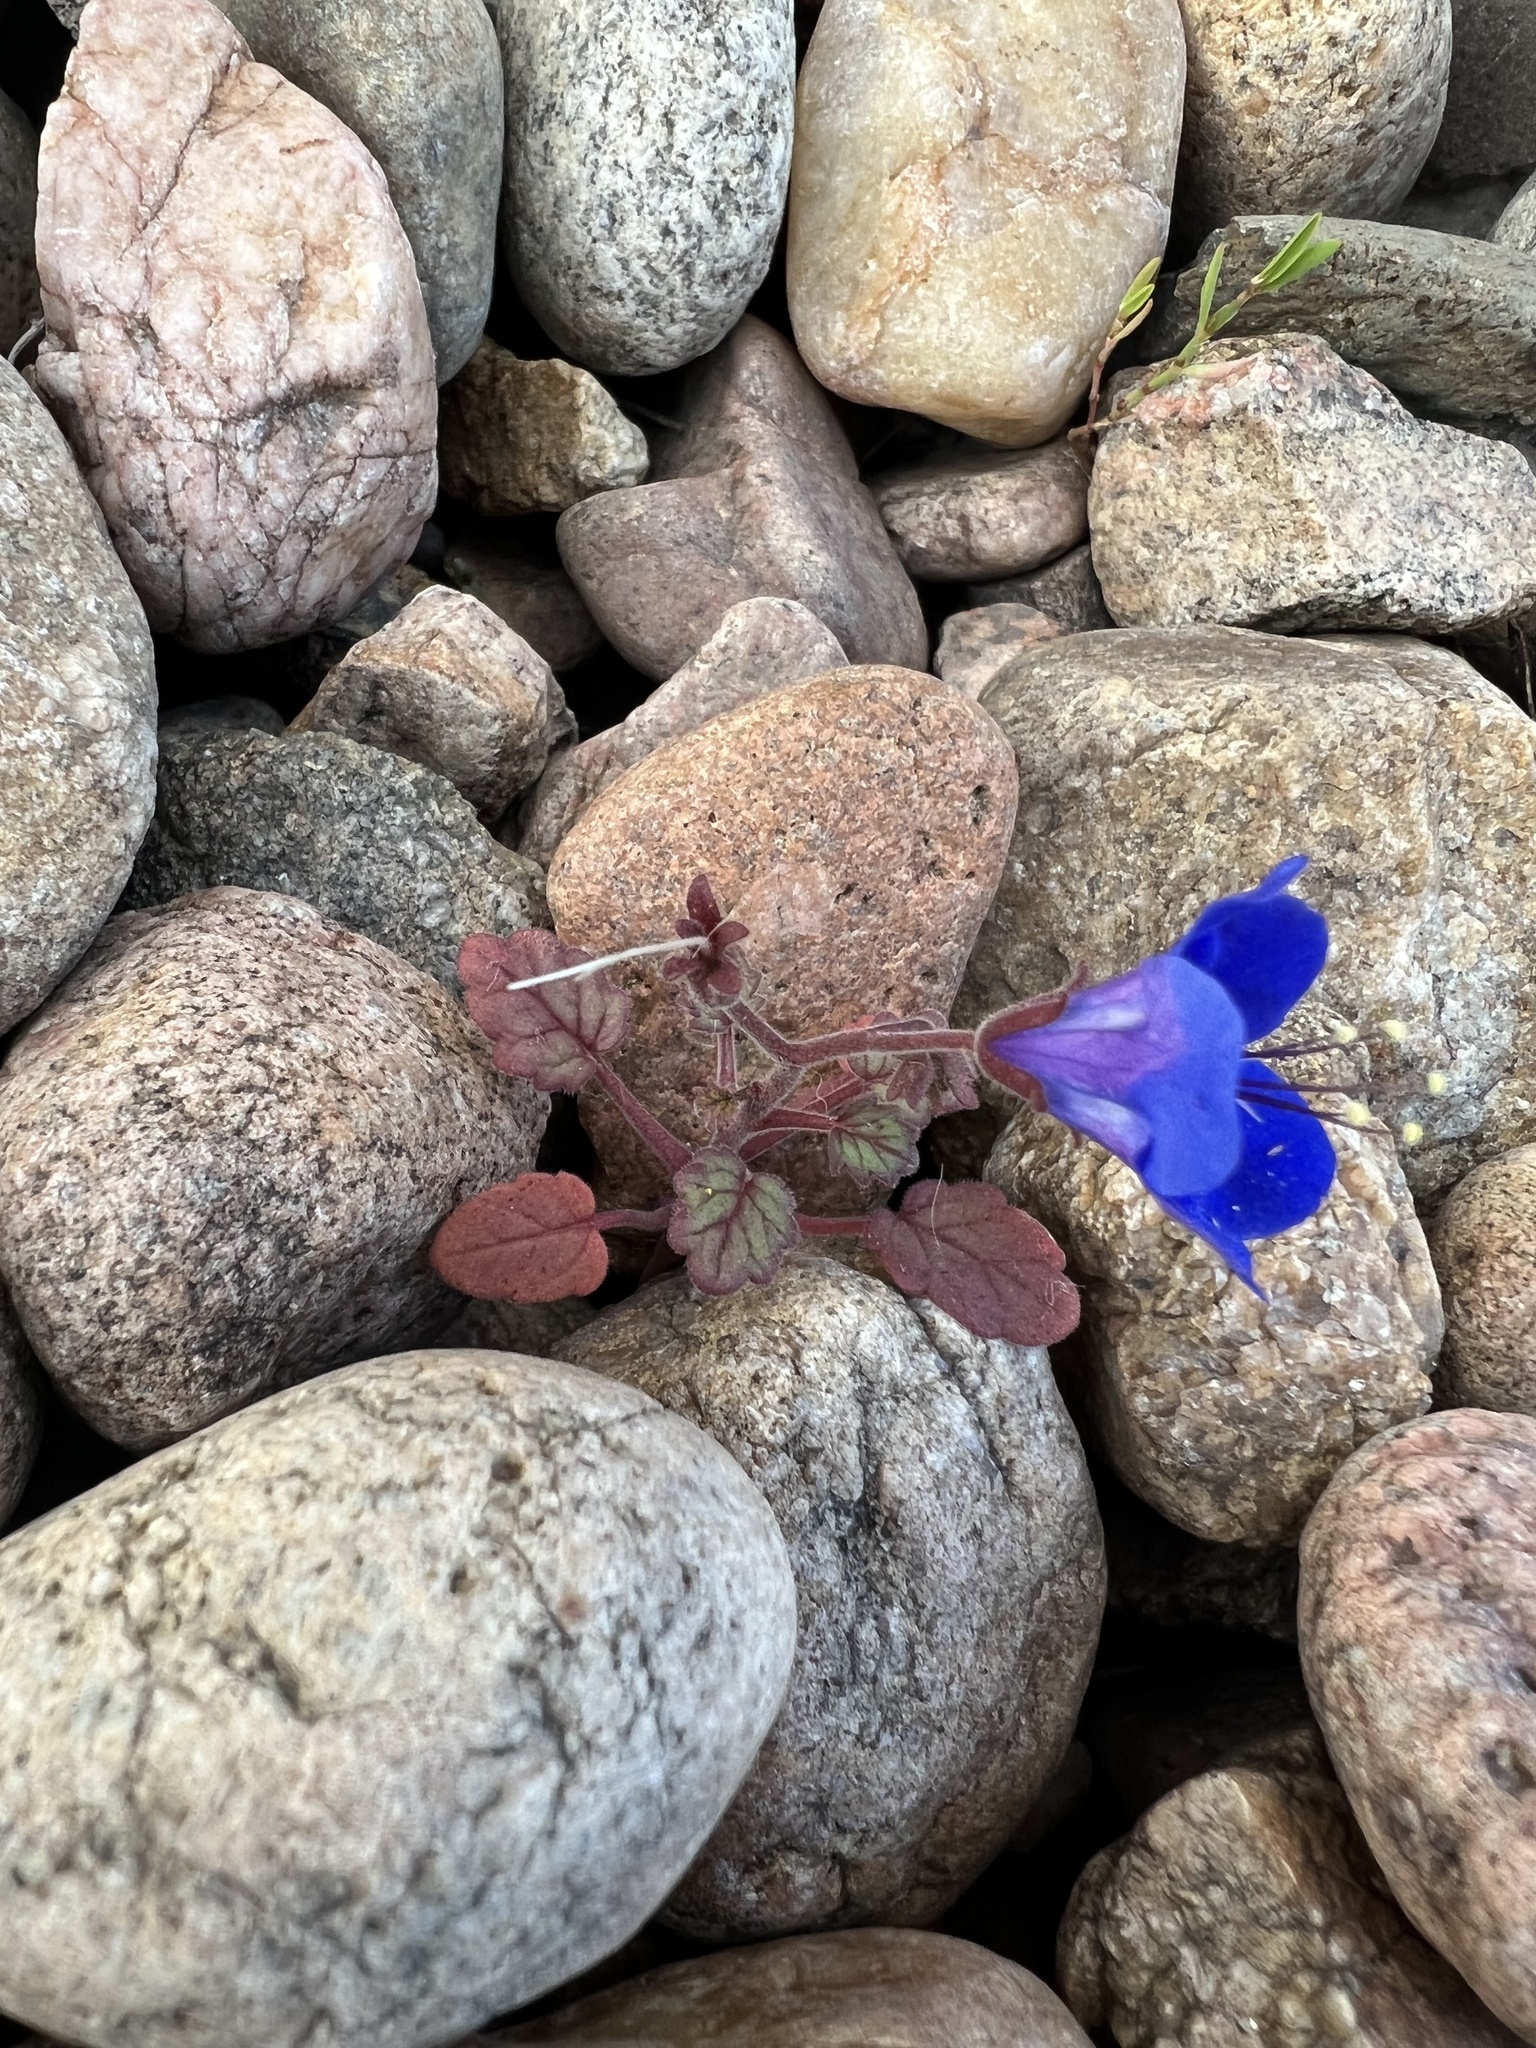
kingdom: Plantae
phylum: Tracheophyta
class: Magnoliopsida
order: Boraginales
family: Hydrophyllaceae
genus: Phacelia
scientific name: Phacelia campanularia
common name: California bluebell
